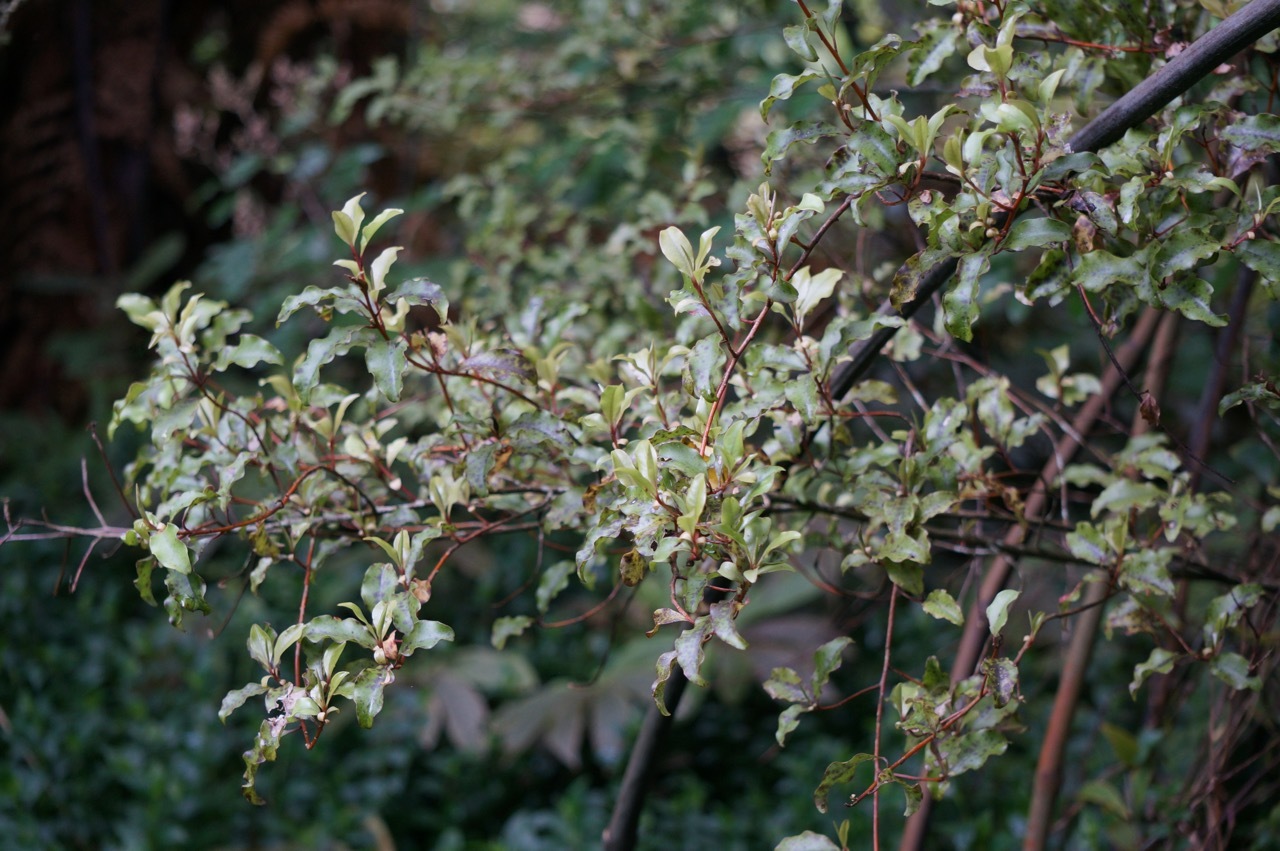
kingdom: Plantae
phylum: Tracheophyta
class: Magnoliopsida
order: Ericales
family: Primulaceae
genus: Myrsine
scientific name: Myrsine australis
